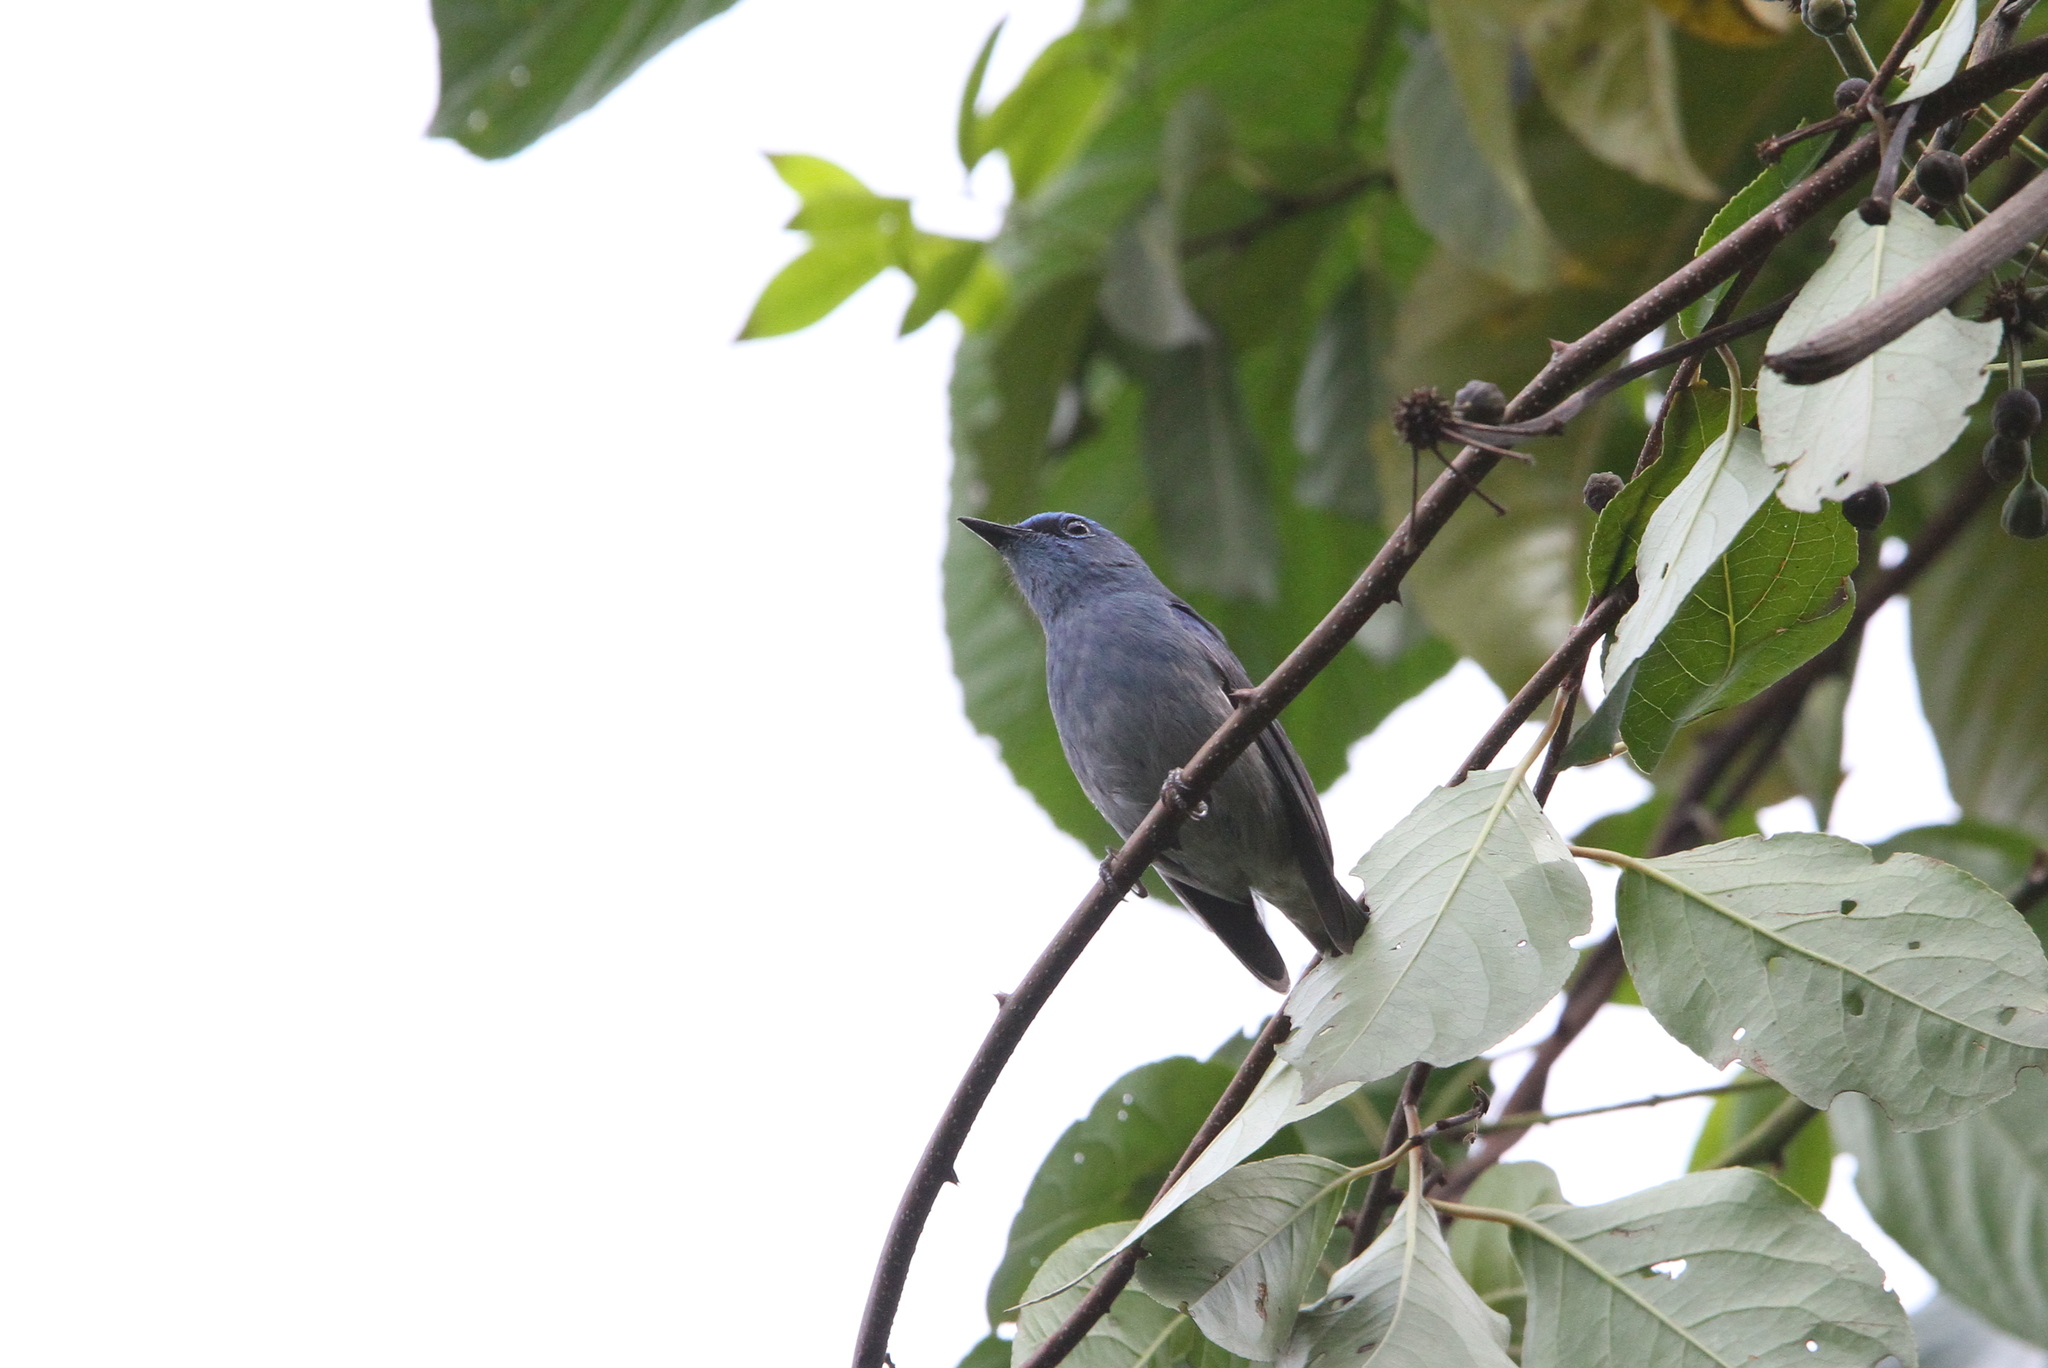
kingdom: Animalia
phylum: Chordata
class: Aves
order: Passeriformes
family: Muscicapidae
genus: Cyornis
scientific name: Cyornis unicolor
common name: Pale blue flycatcher
